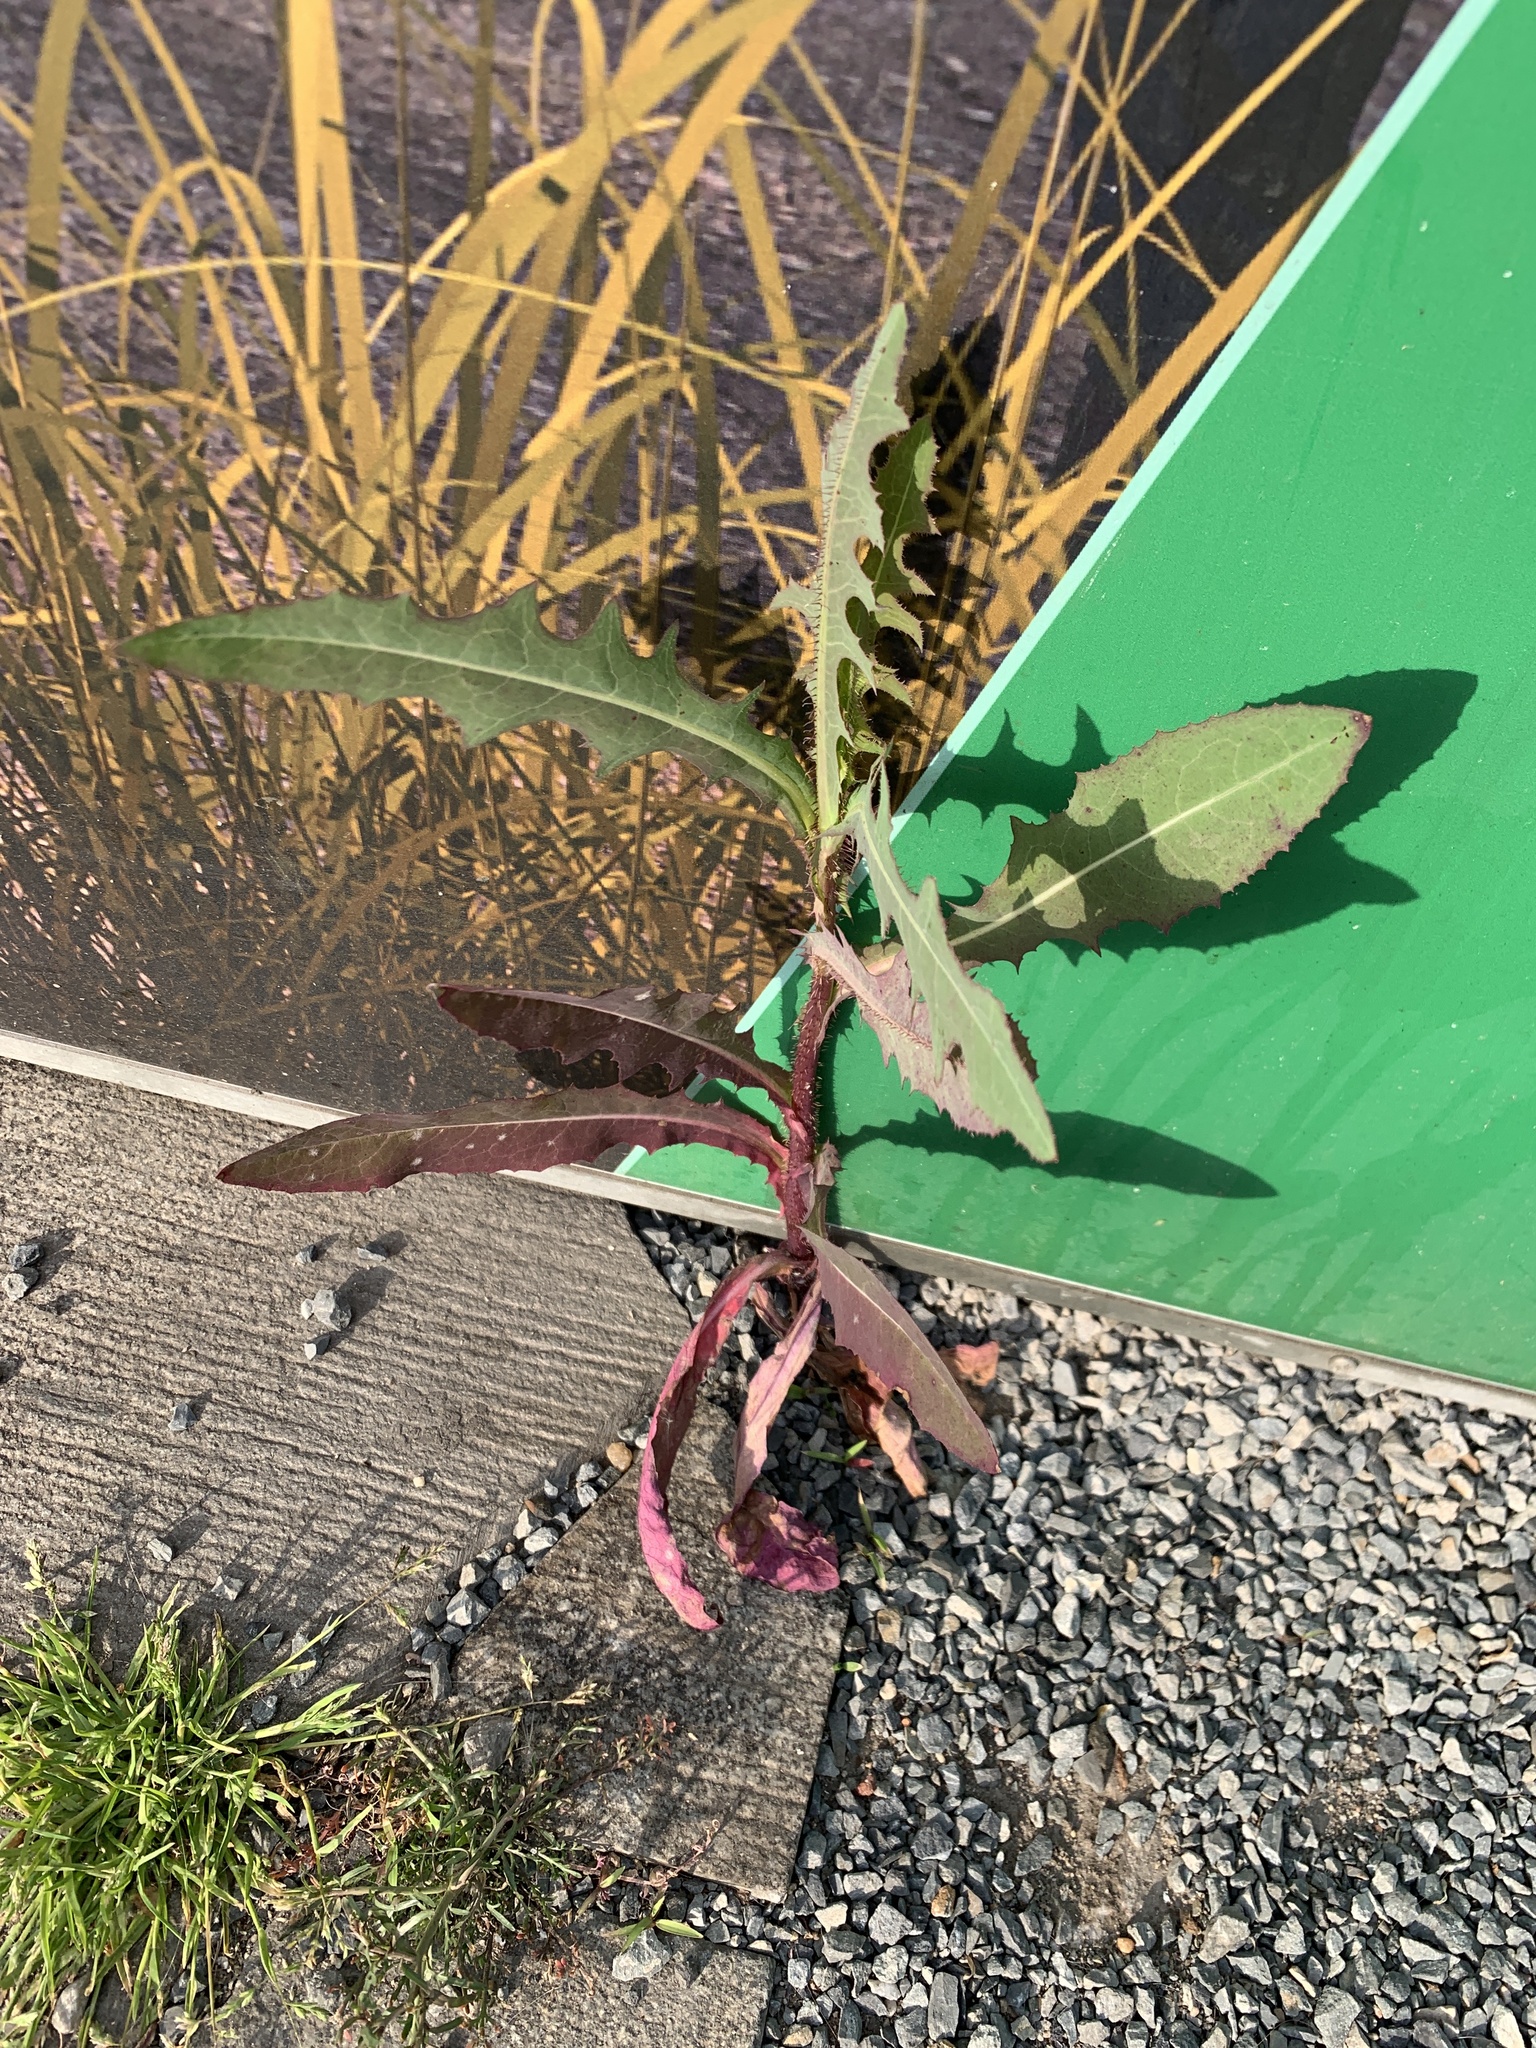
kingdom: Plantae
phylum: Tracheophyta
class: Magnoliopsida
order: Asterales
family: Asteraceae
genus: Lactuca
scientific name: Lactuca serriola
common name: Prickly lettuce
